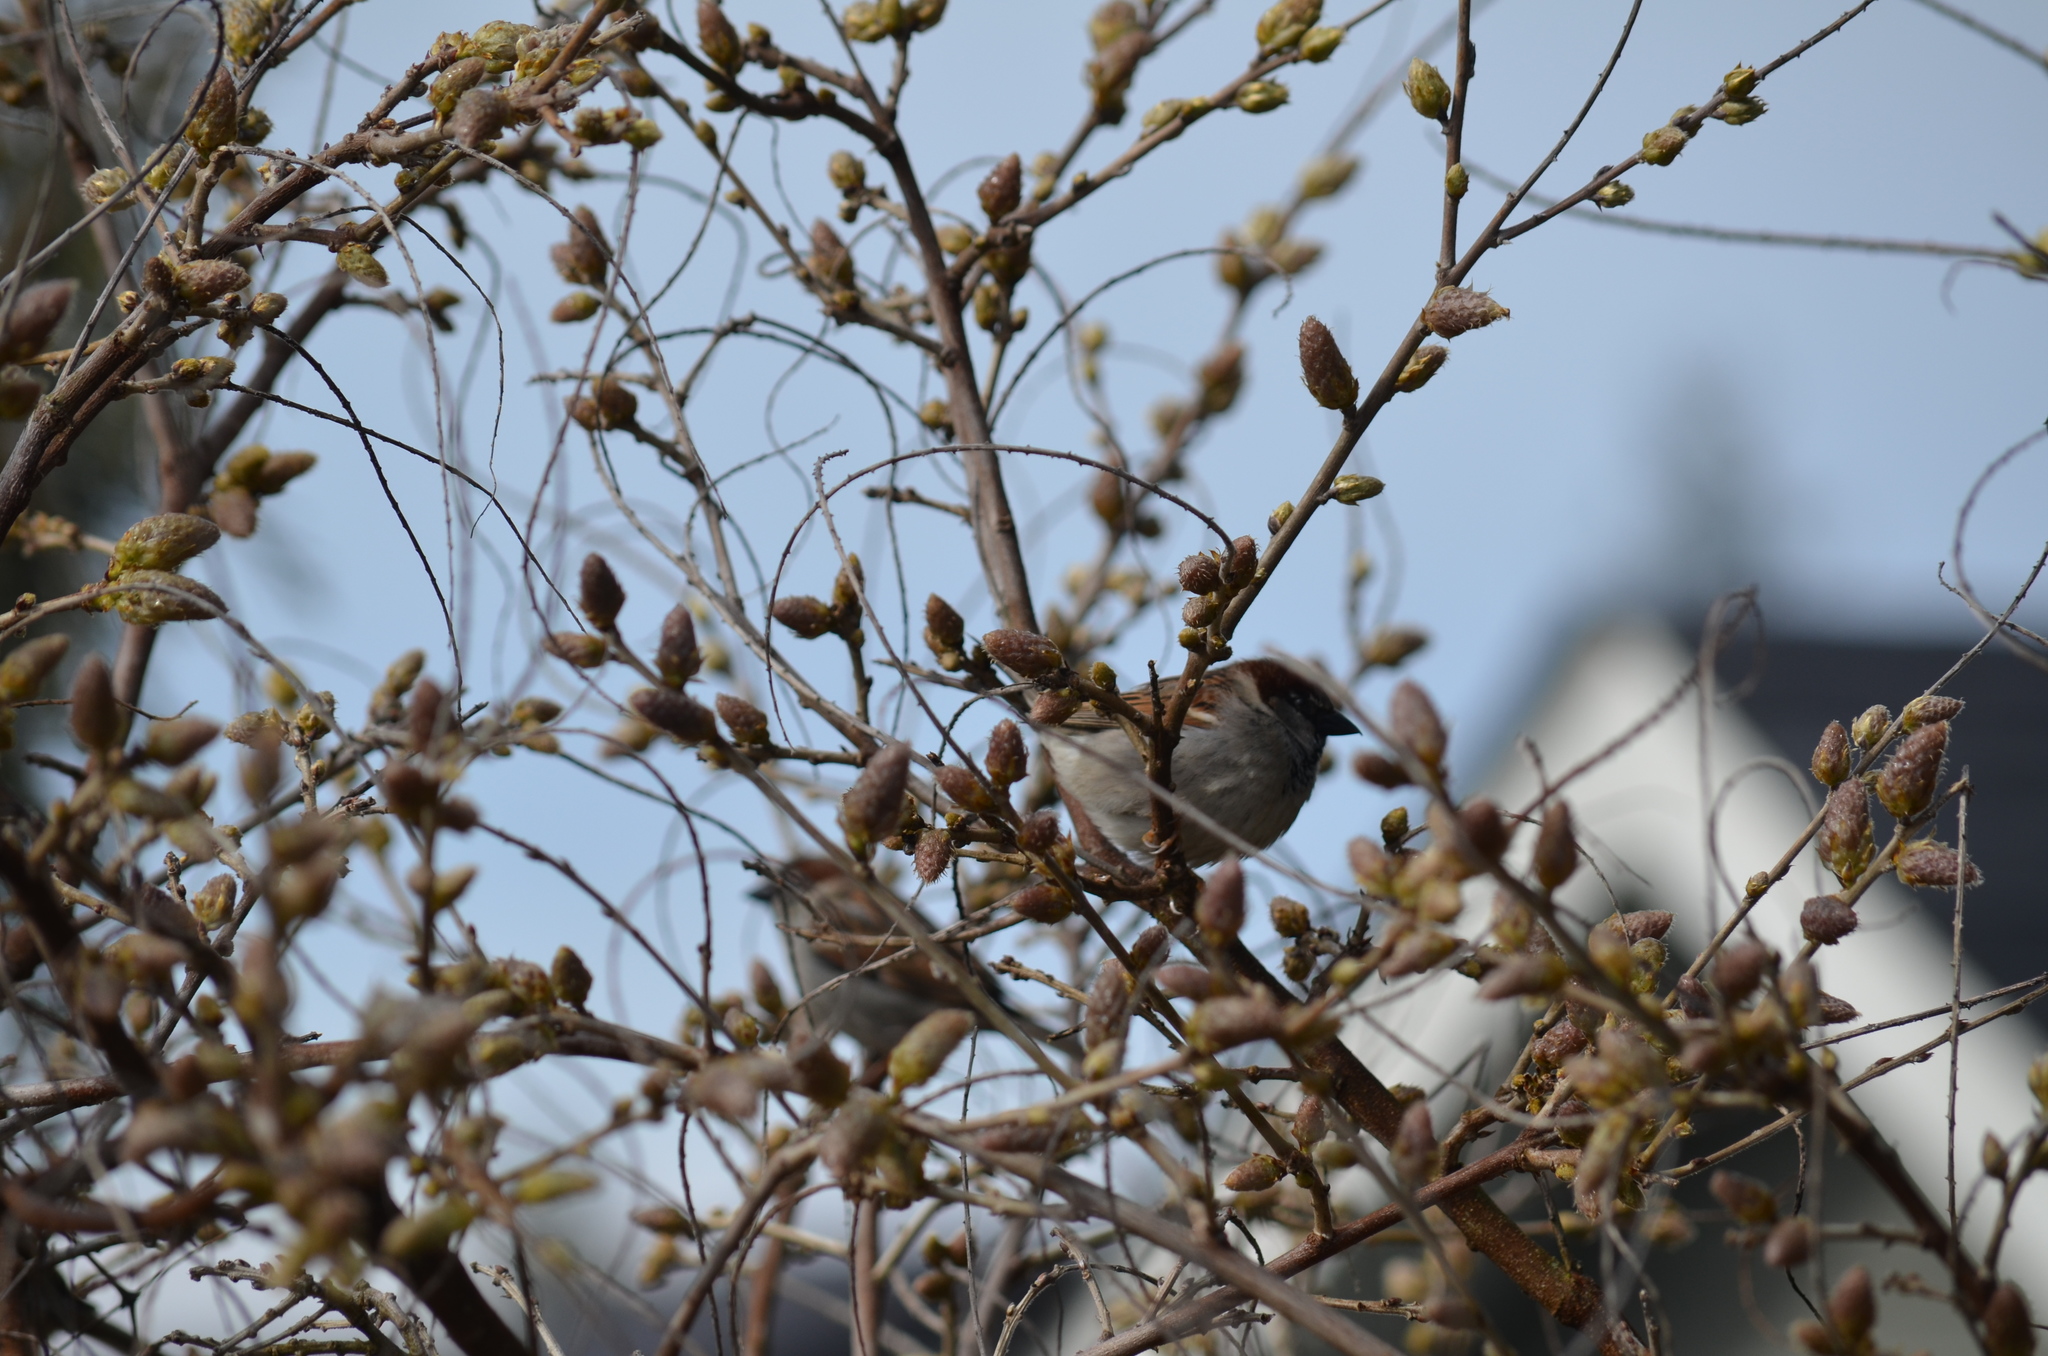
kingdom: Animalia
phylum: Chordata
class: Aves
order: Passeriformes
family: Passeridae
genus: Passer
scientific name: Passer domesticus
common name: House sparrow
